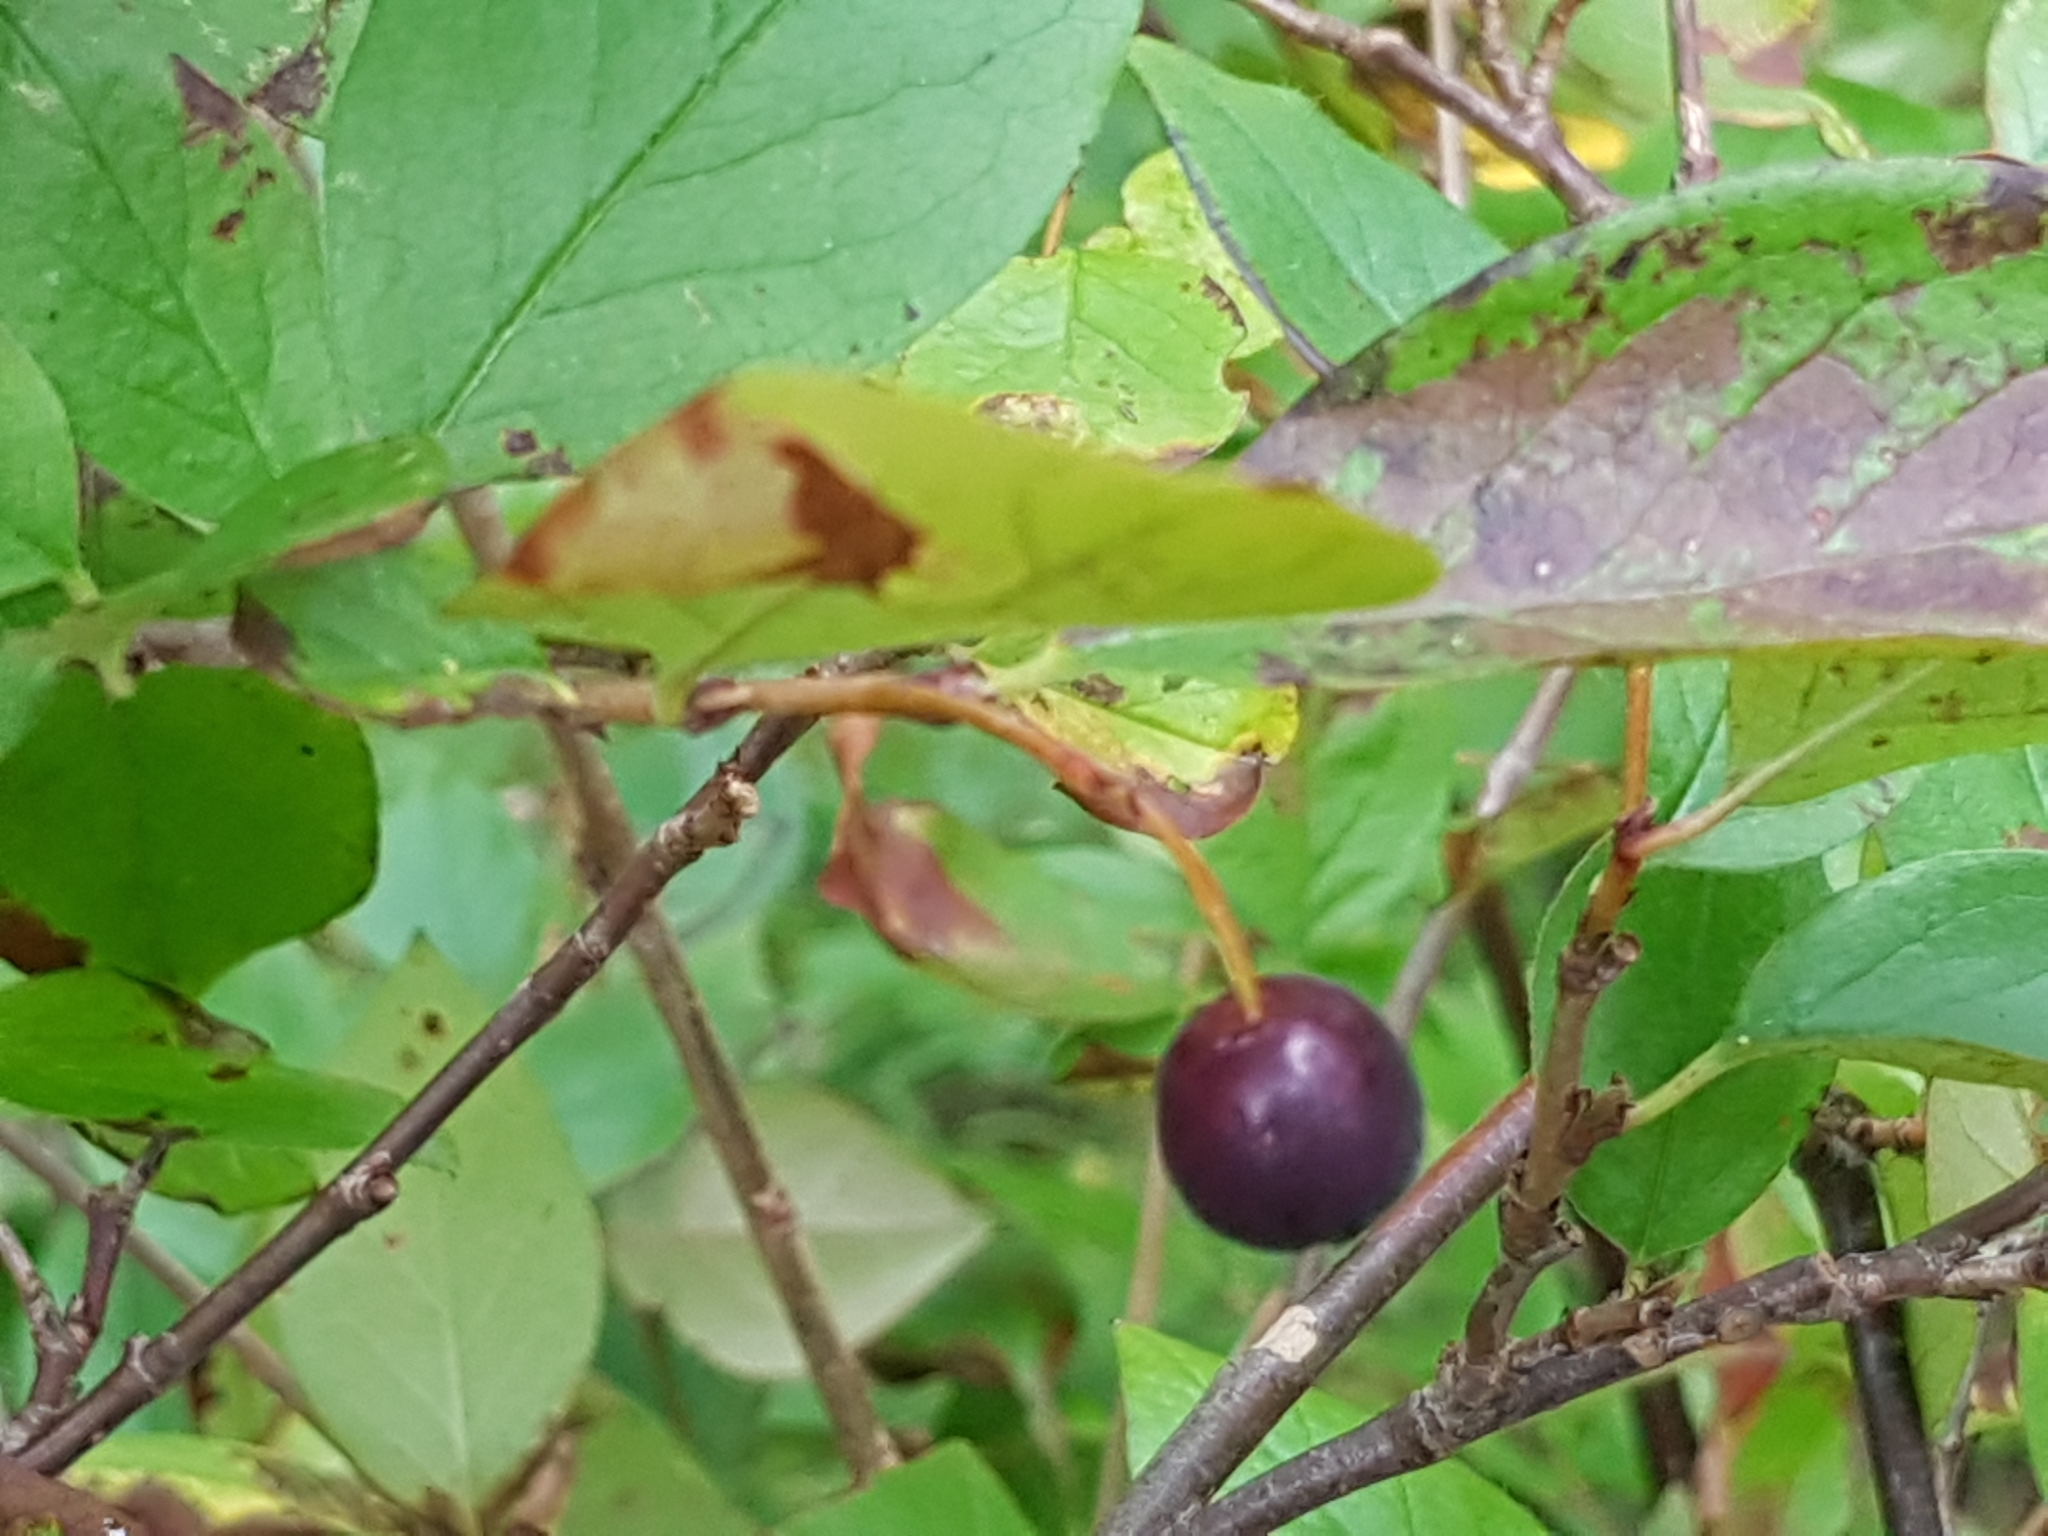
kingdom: Plantae
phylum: Tracheophyta
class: Magnoliopsida
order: Rosales
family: Rosaceae
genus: Cotoneaster
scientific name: Cotoneaster acutifolius
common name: Peking cotoneaster
